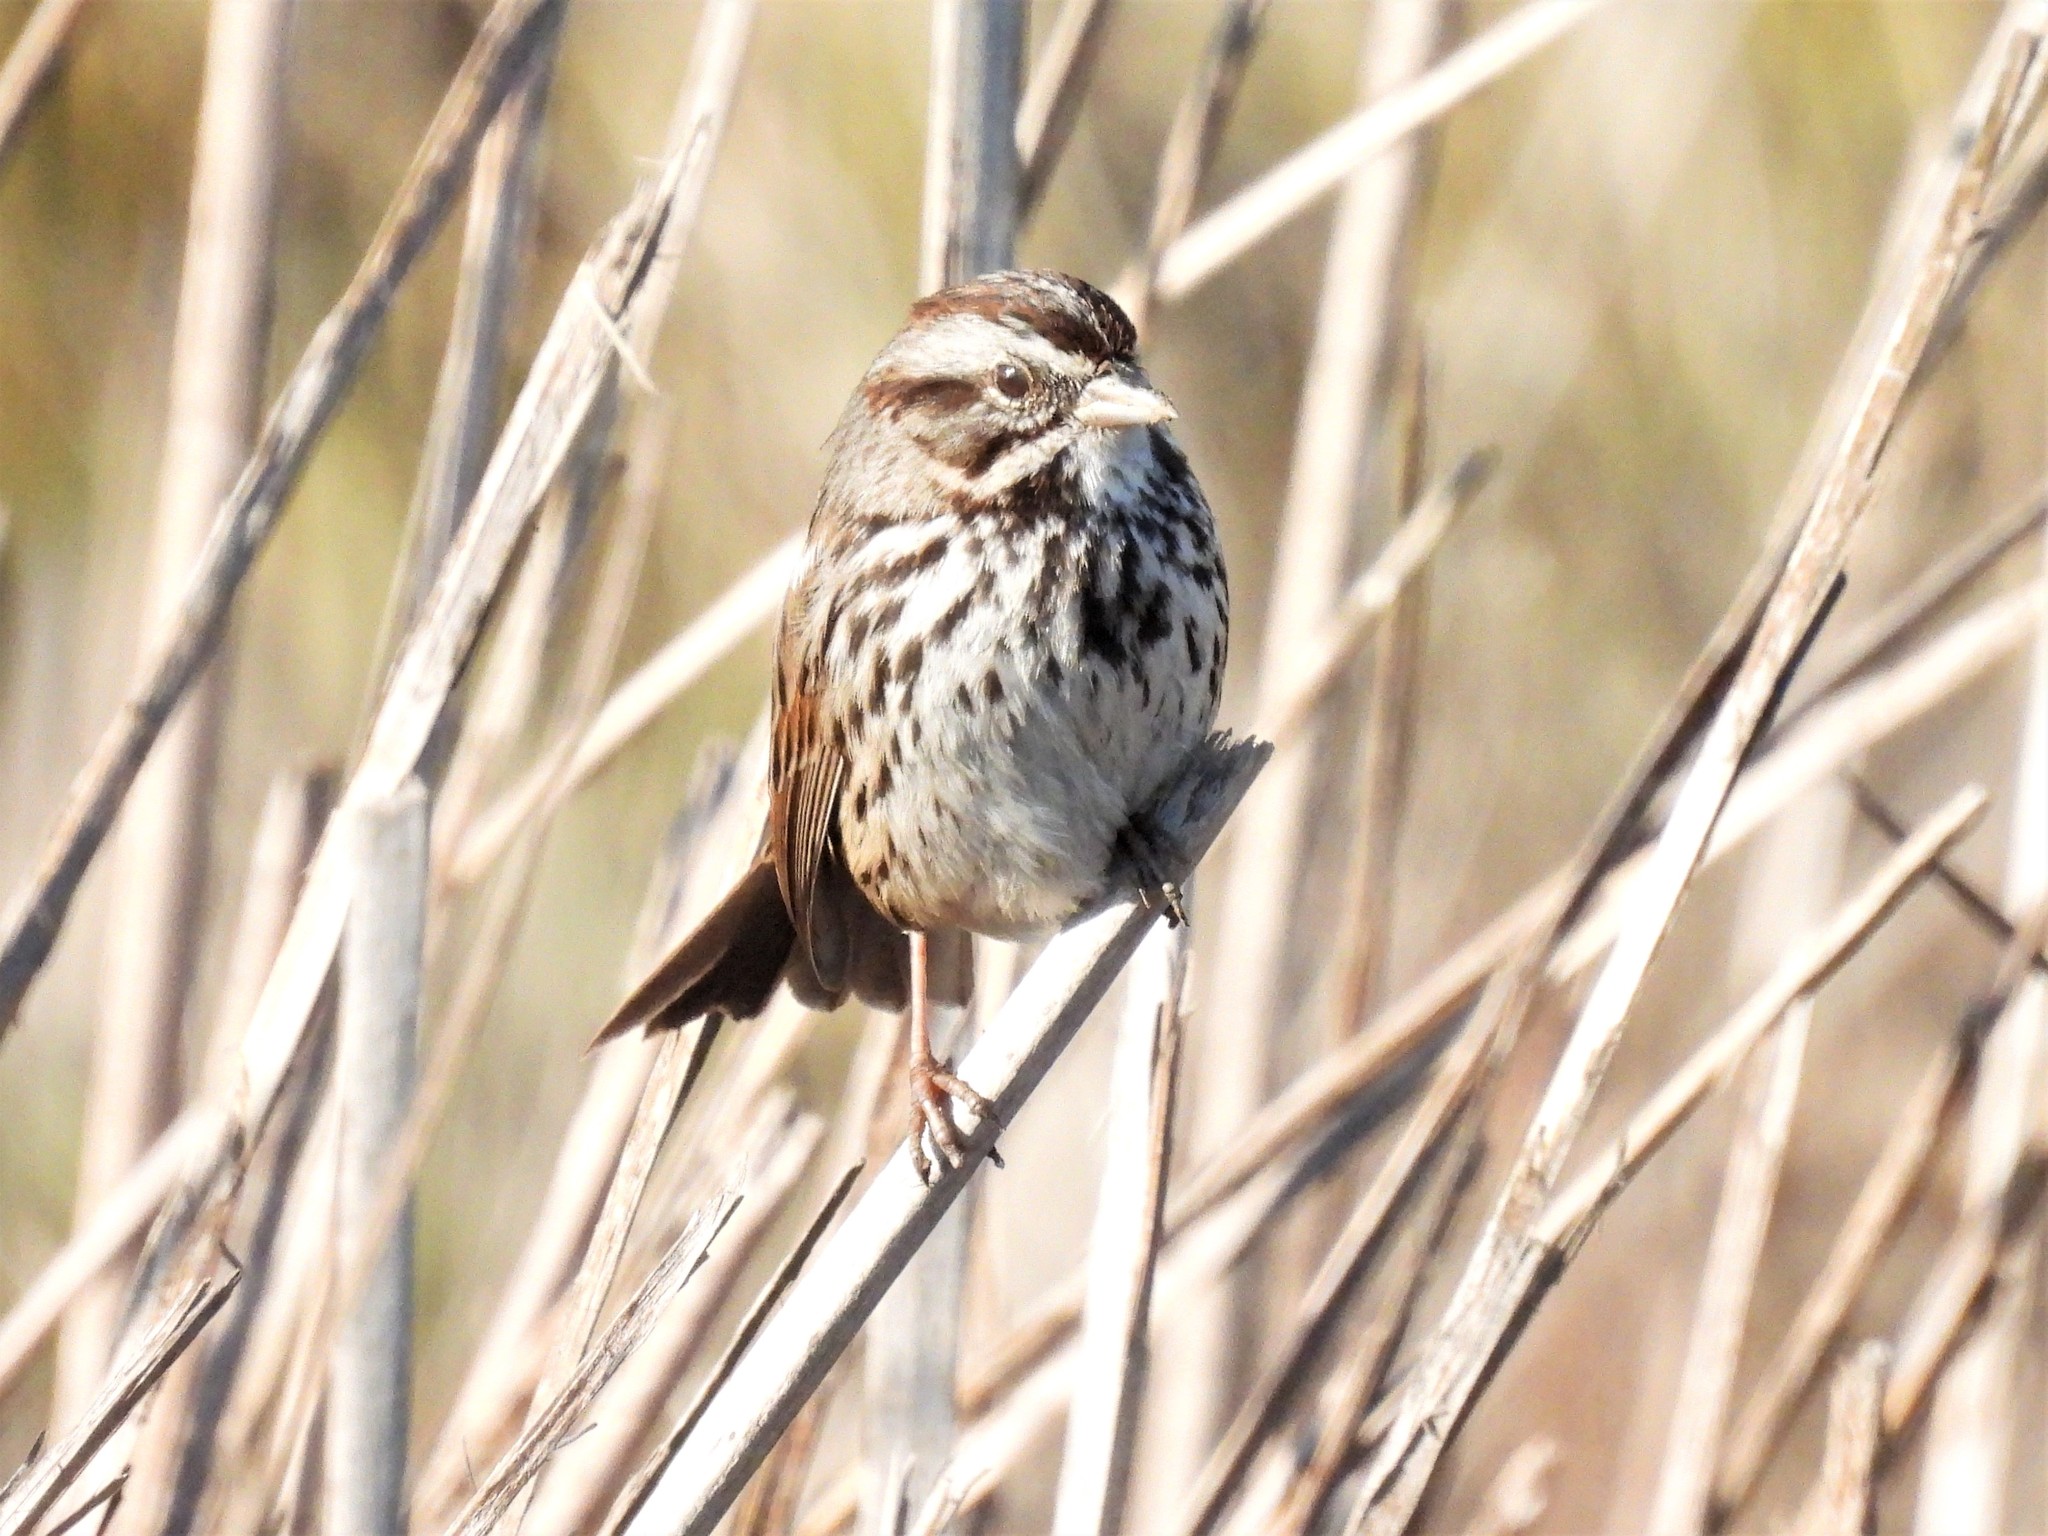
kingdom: Animalia
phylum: Chordata
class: Aves
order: Passeriformes
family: Passerellidae
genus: Melospiza
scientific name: Melospiza melodia
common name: Song sparrow
